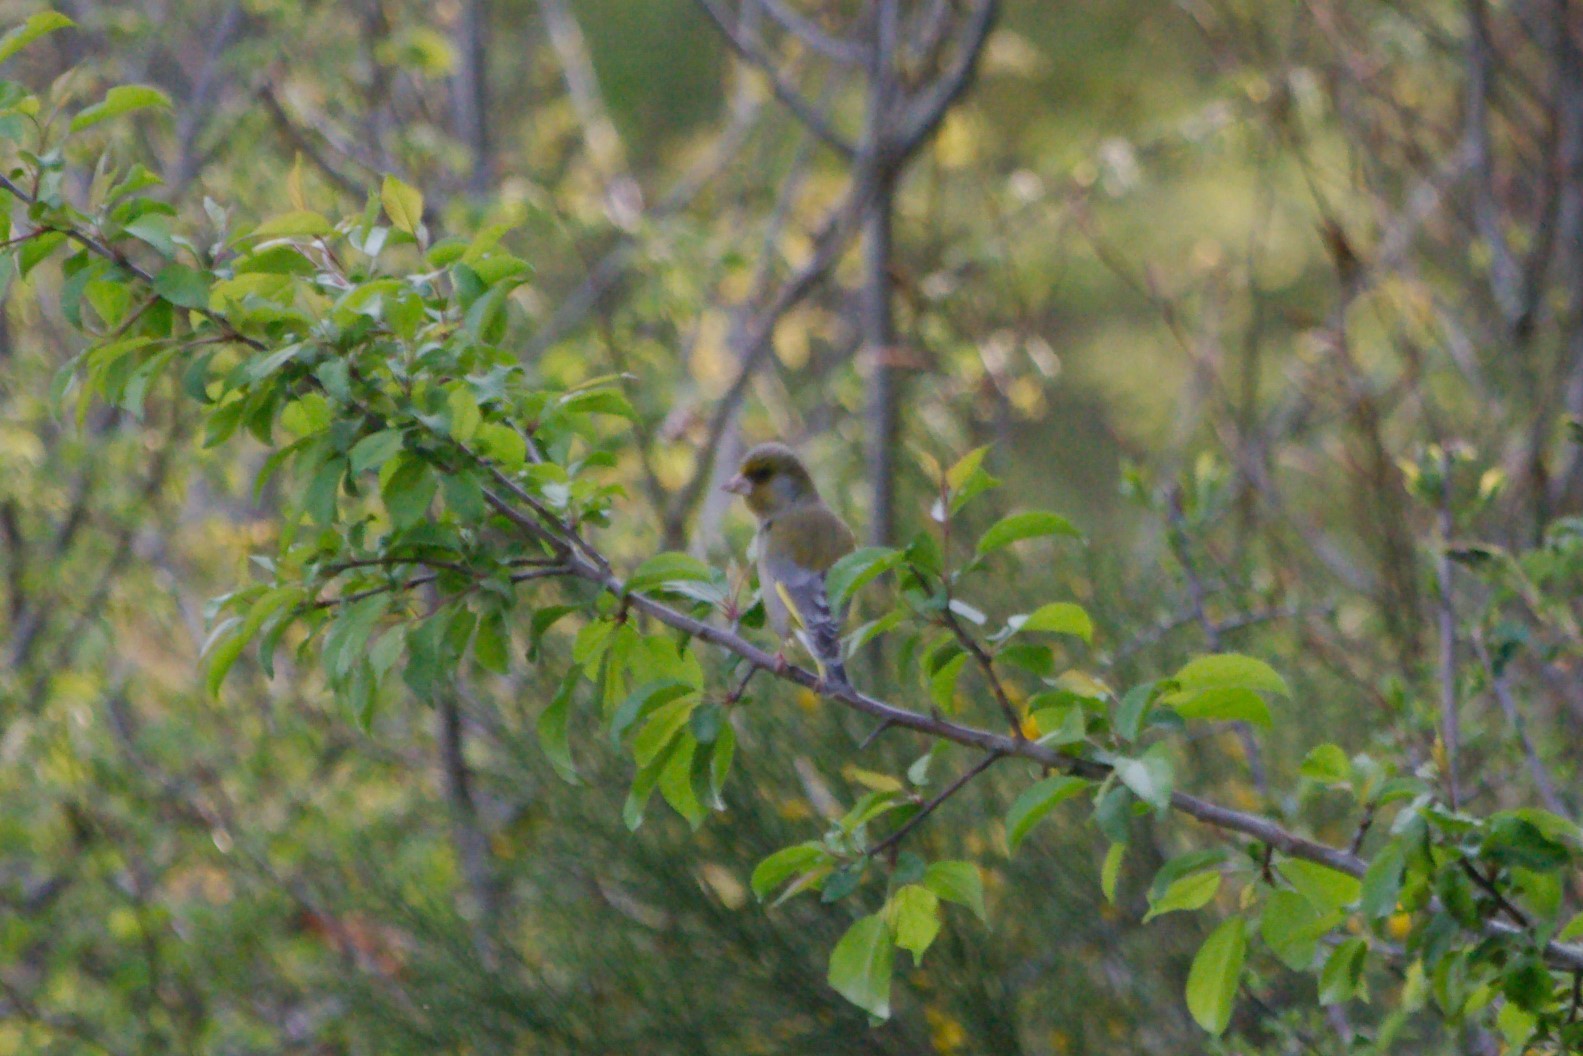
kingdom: Plantae
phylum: Tracheophyta
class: Liliopsida
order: Poales
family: Poaceae
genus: Chloris
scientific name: Chloris chloris
